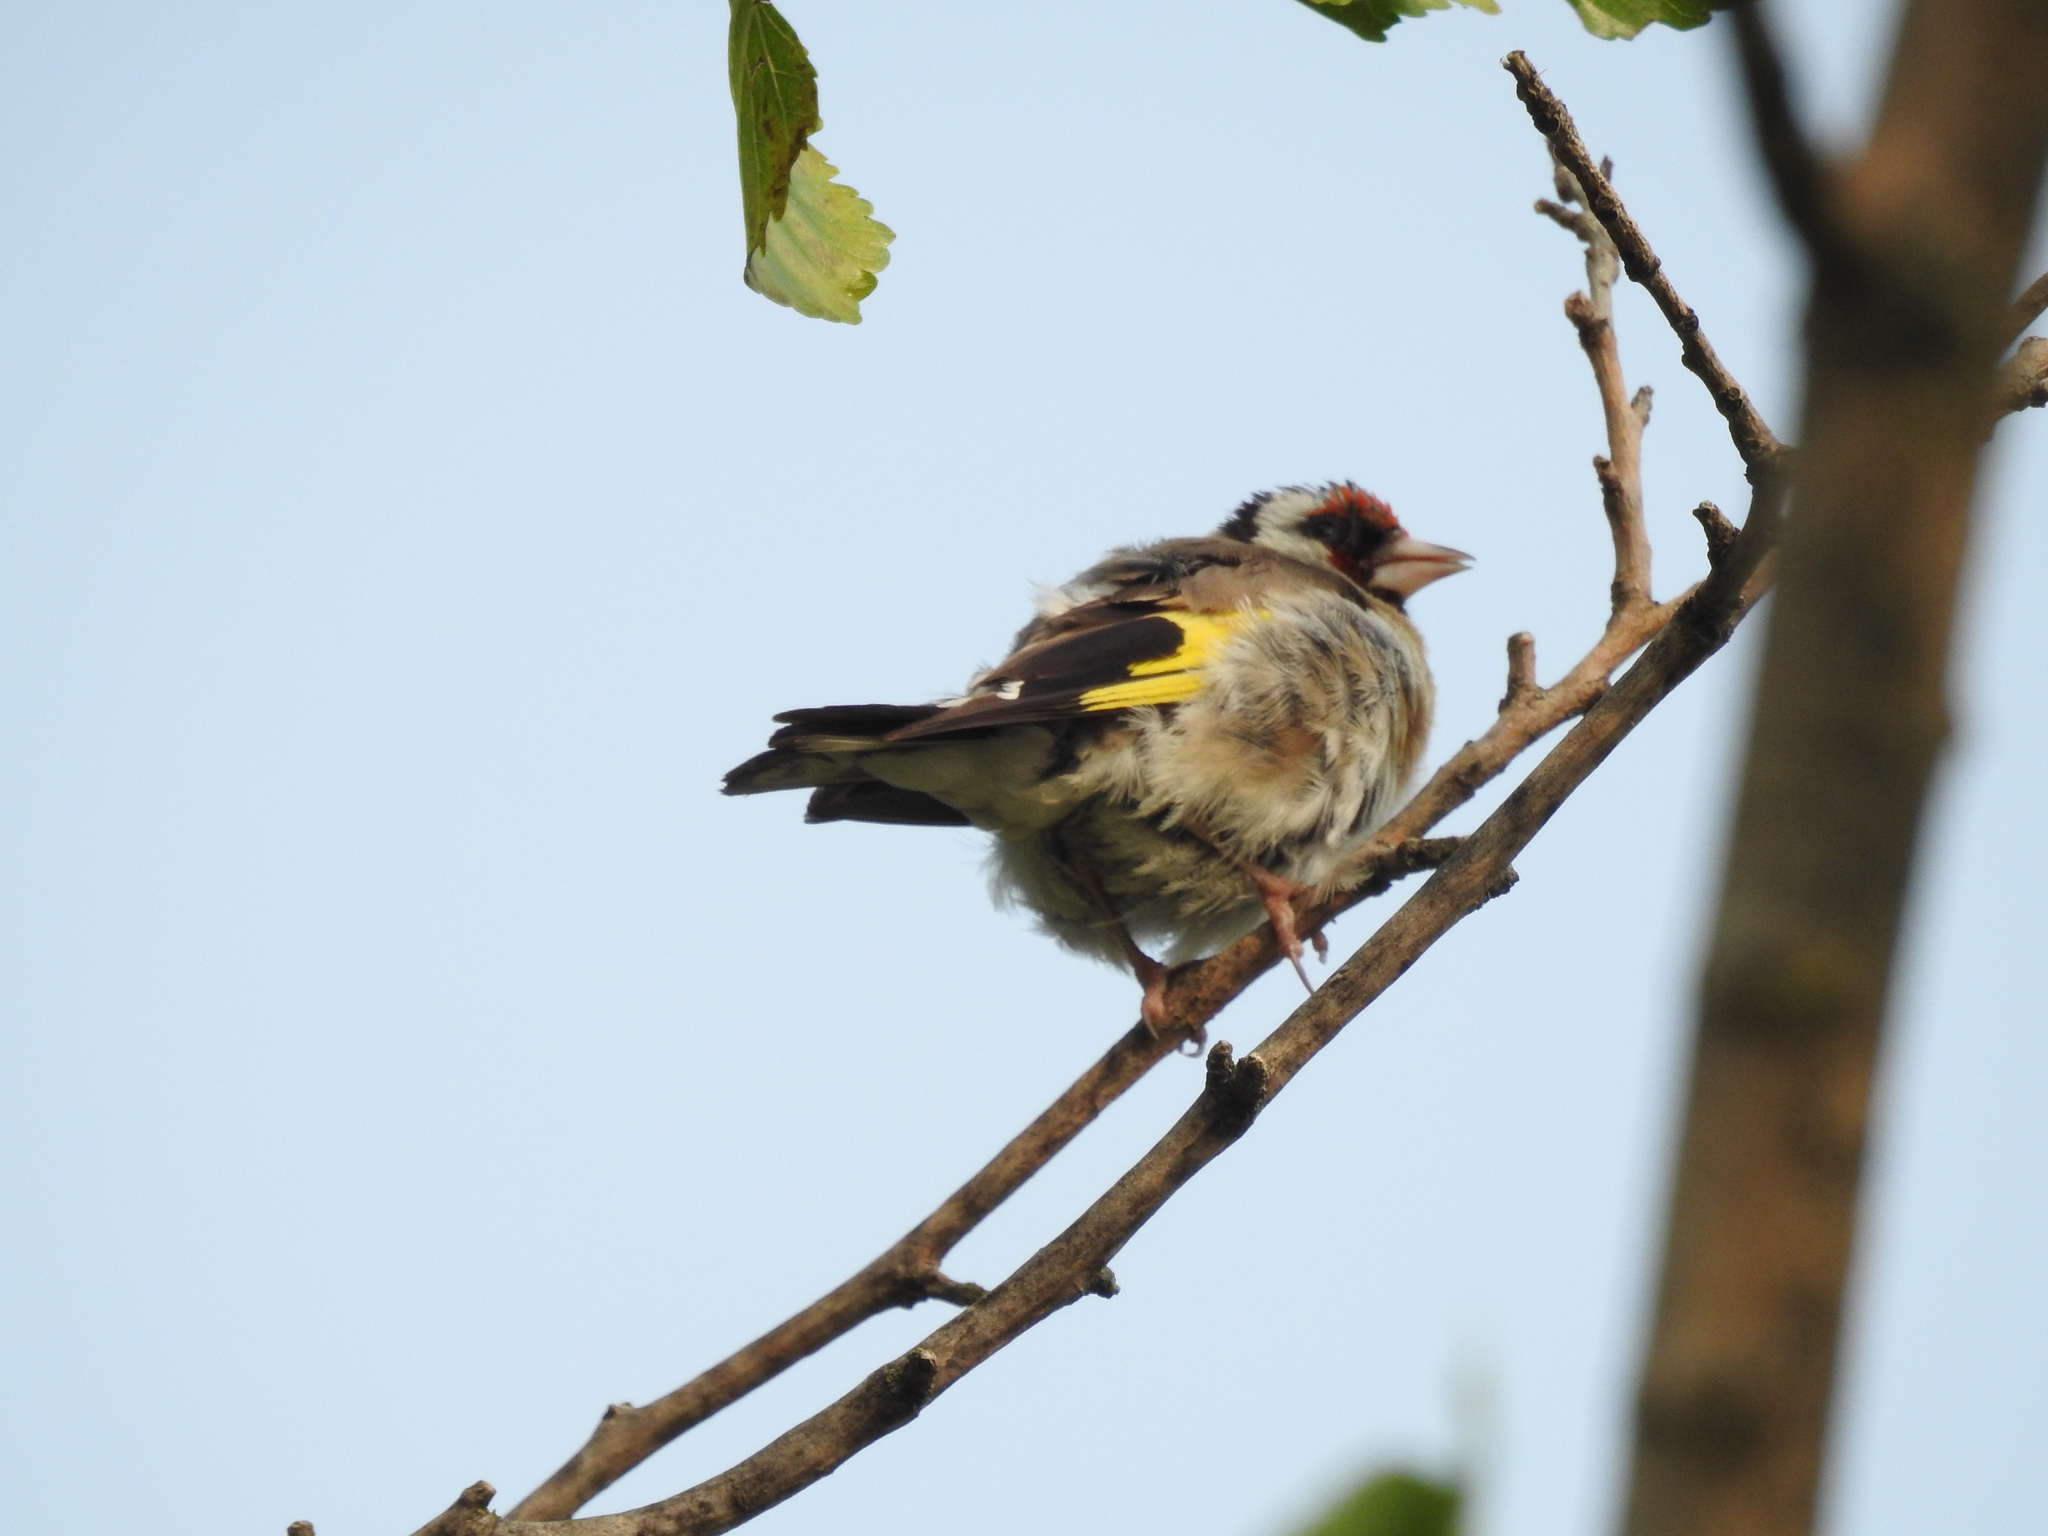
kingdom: Animalia
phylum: Chordata
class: Aves
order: Passeriformes
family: Fringillidae
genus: Carduelis
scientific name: Carduelis carduelis
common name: European goldfinch
